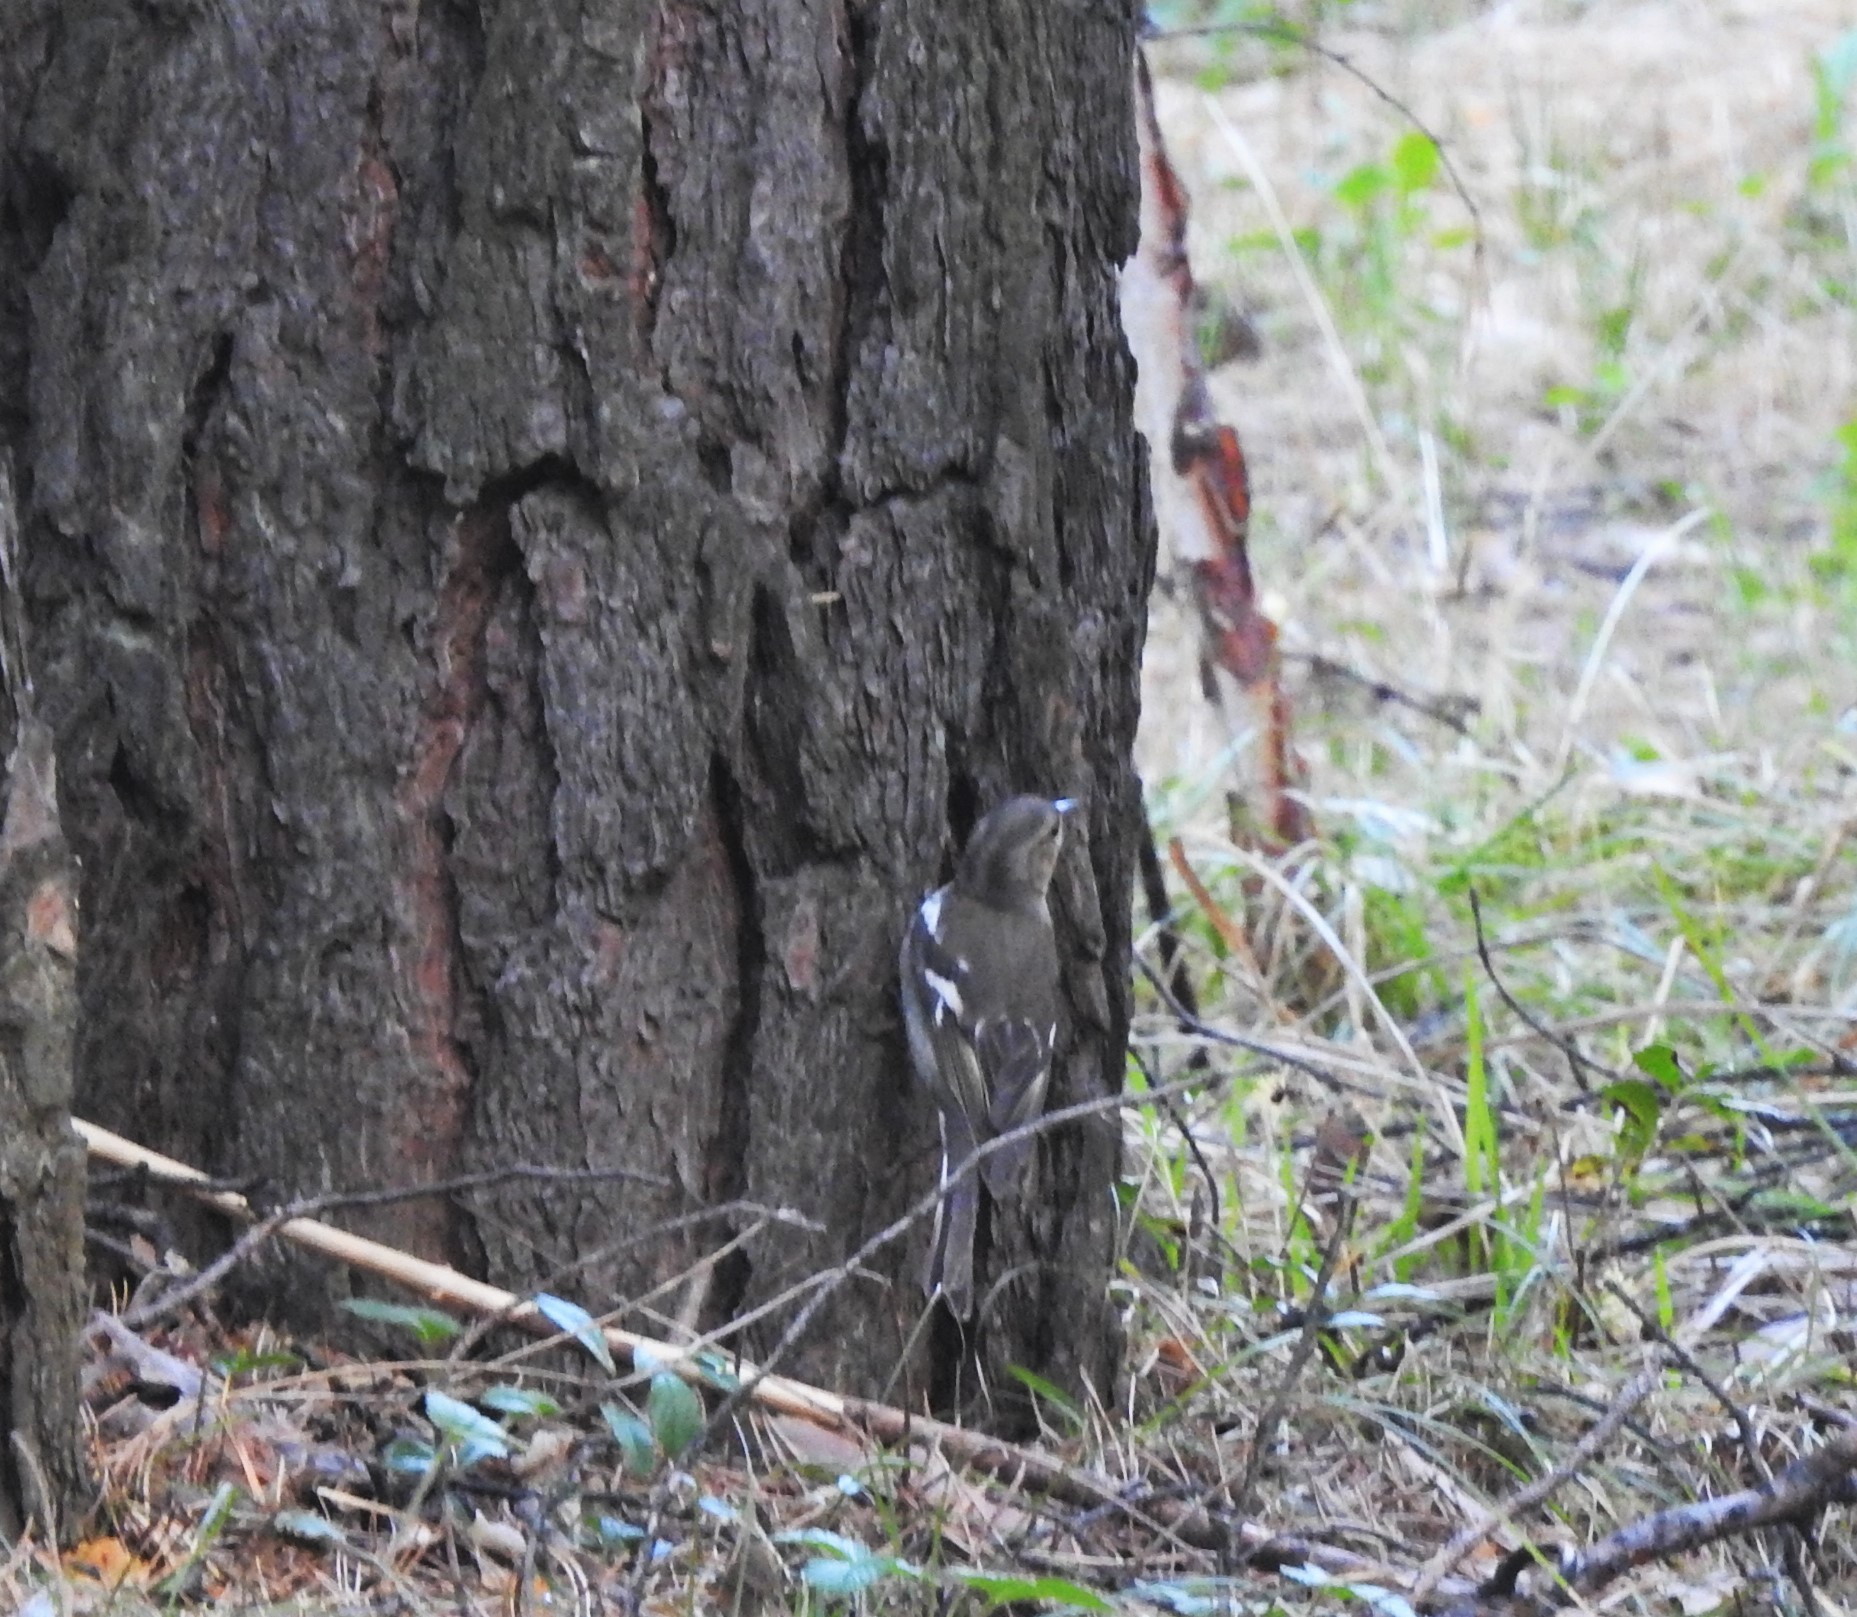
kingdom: Animalia
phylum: Chordata
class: Aves
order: Passeriformes
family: Fringillidae
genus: Fringilla
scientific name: Fringilla coelebs
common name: Common chaffinch
